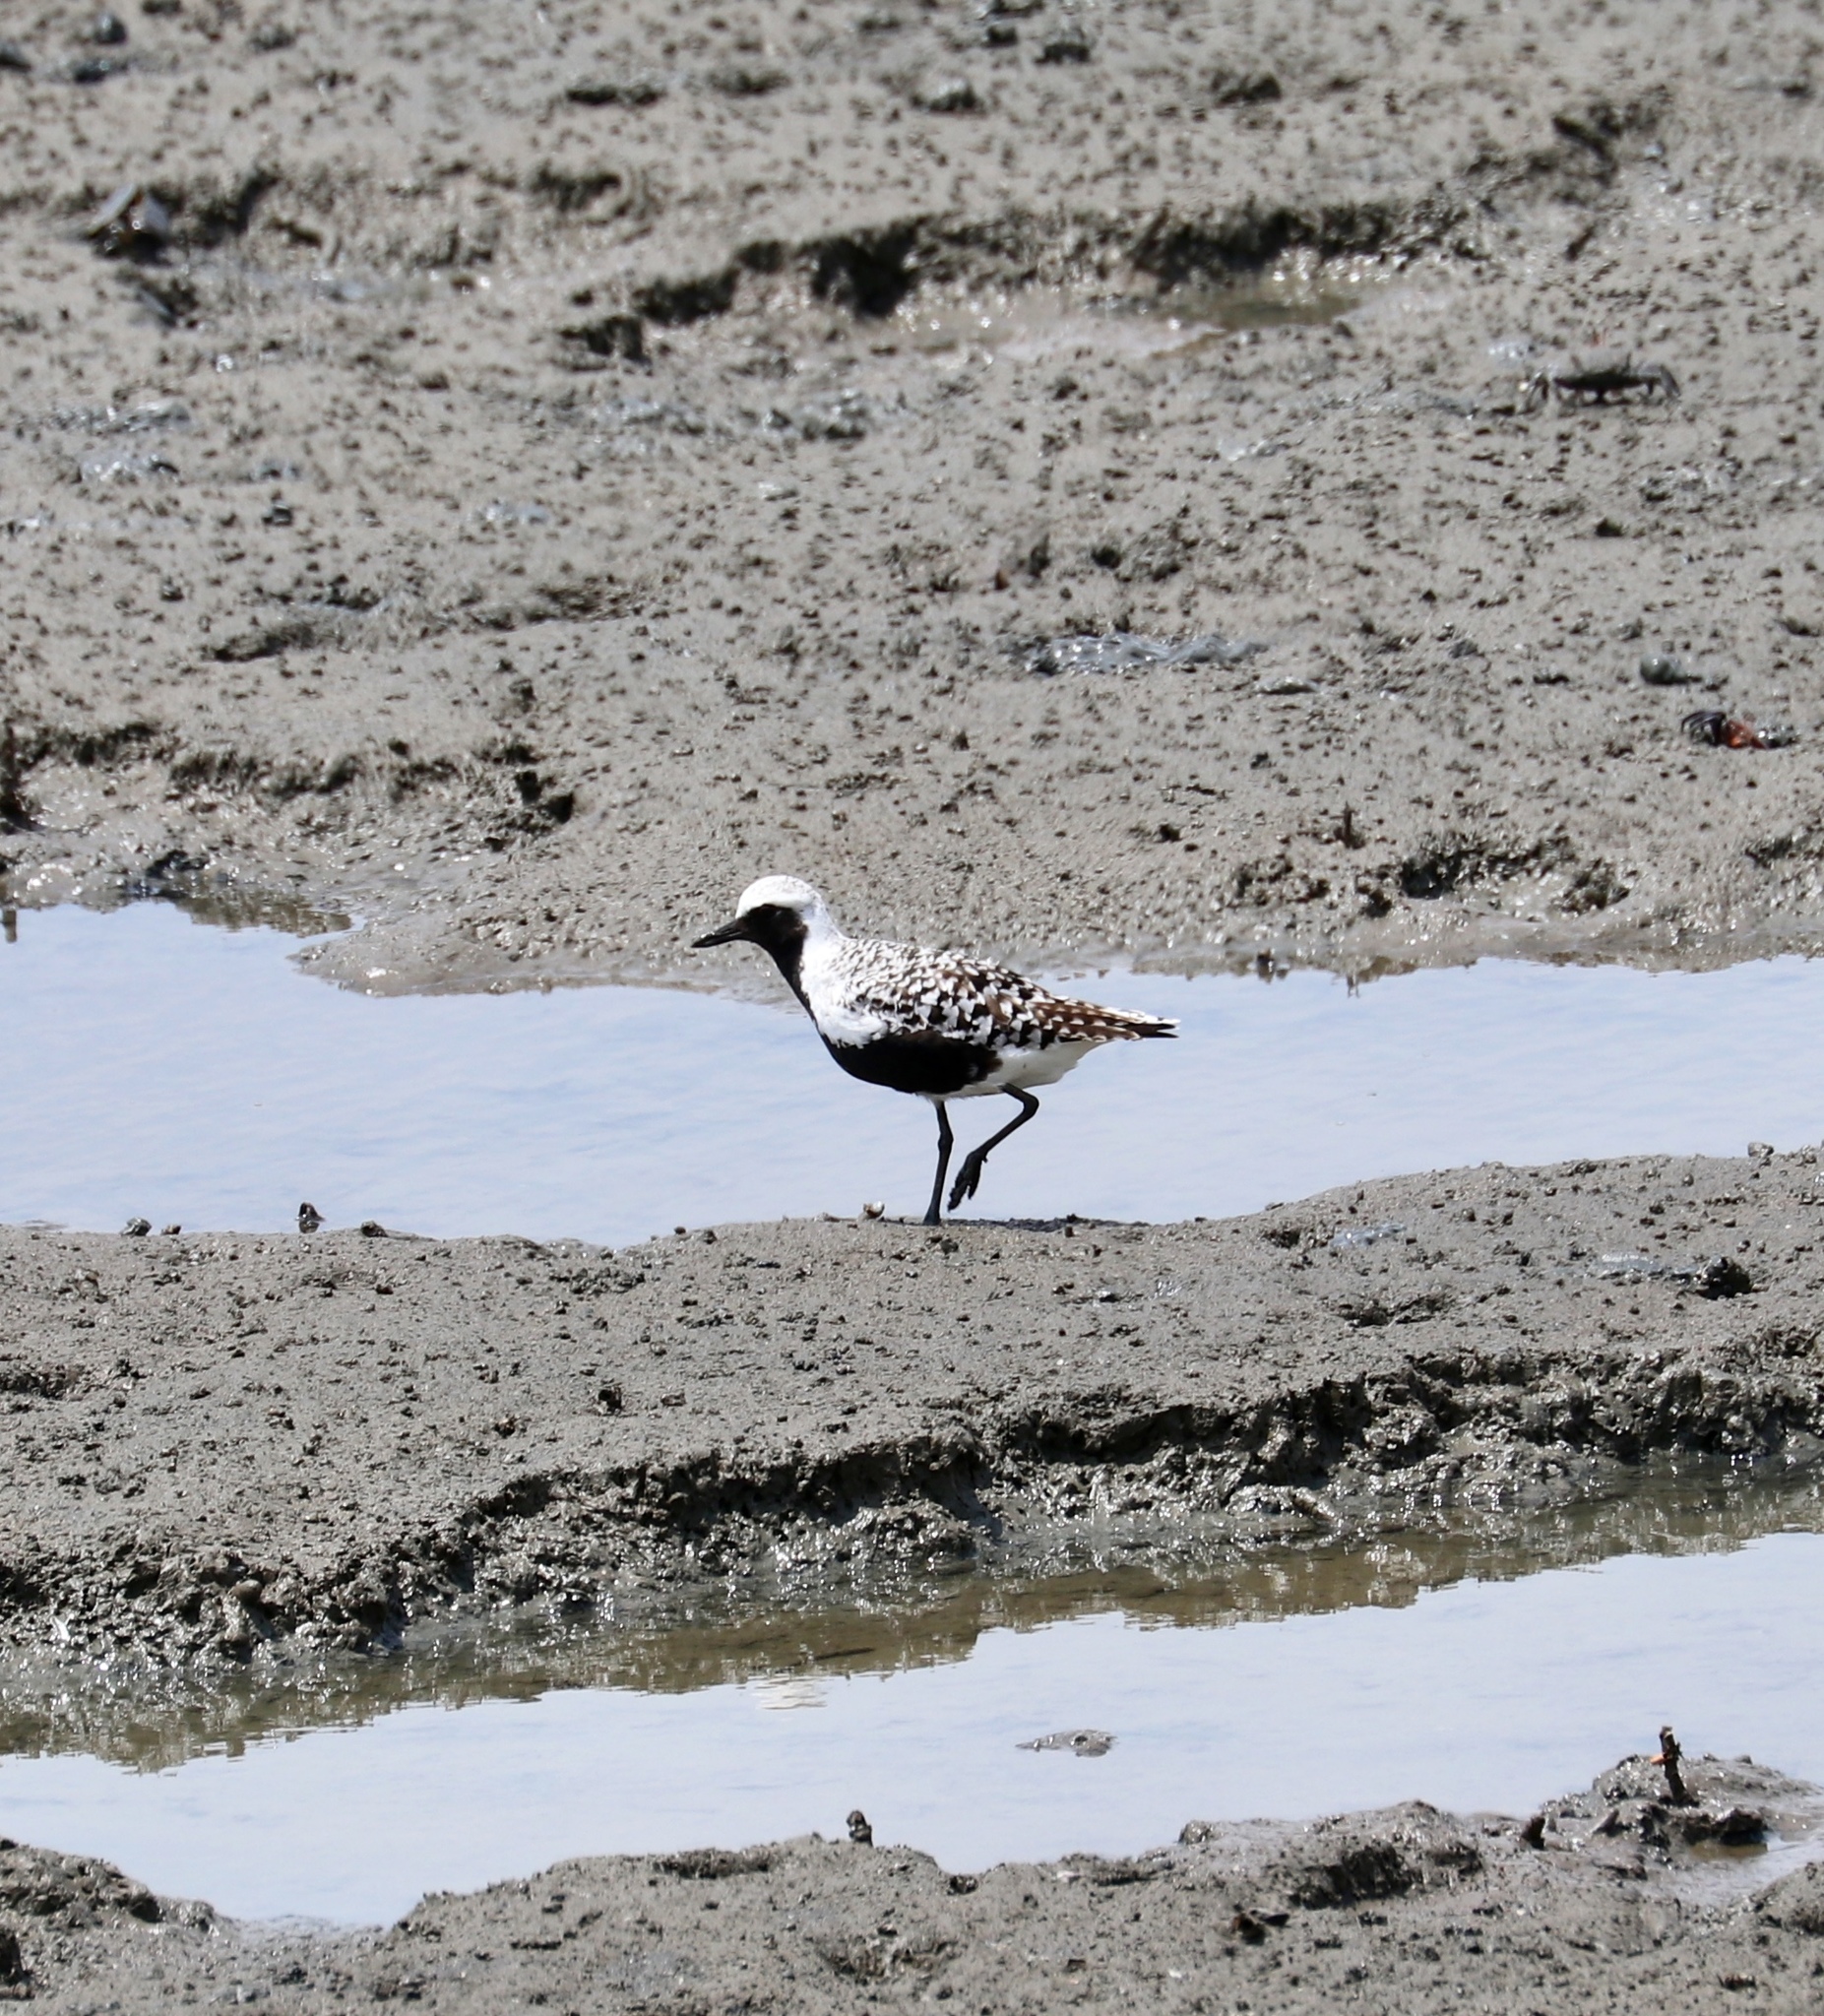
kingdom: Animalia
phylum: Chordata
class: Aves
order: Charadriiformes
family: Charadriidae
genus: Pluvialis
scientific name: Pluvialis squatarola
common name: Grey plover
